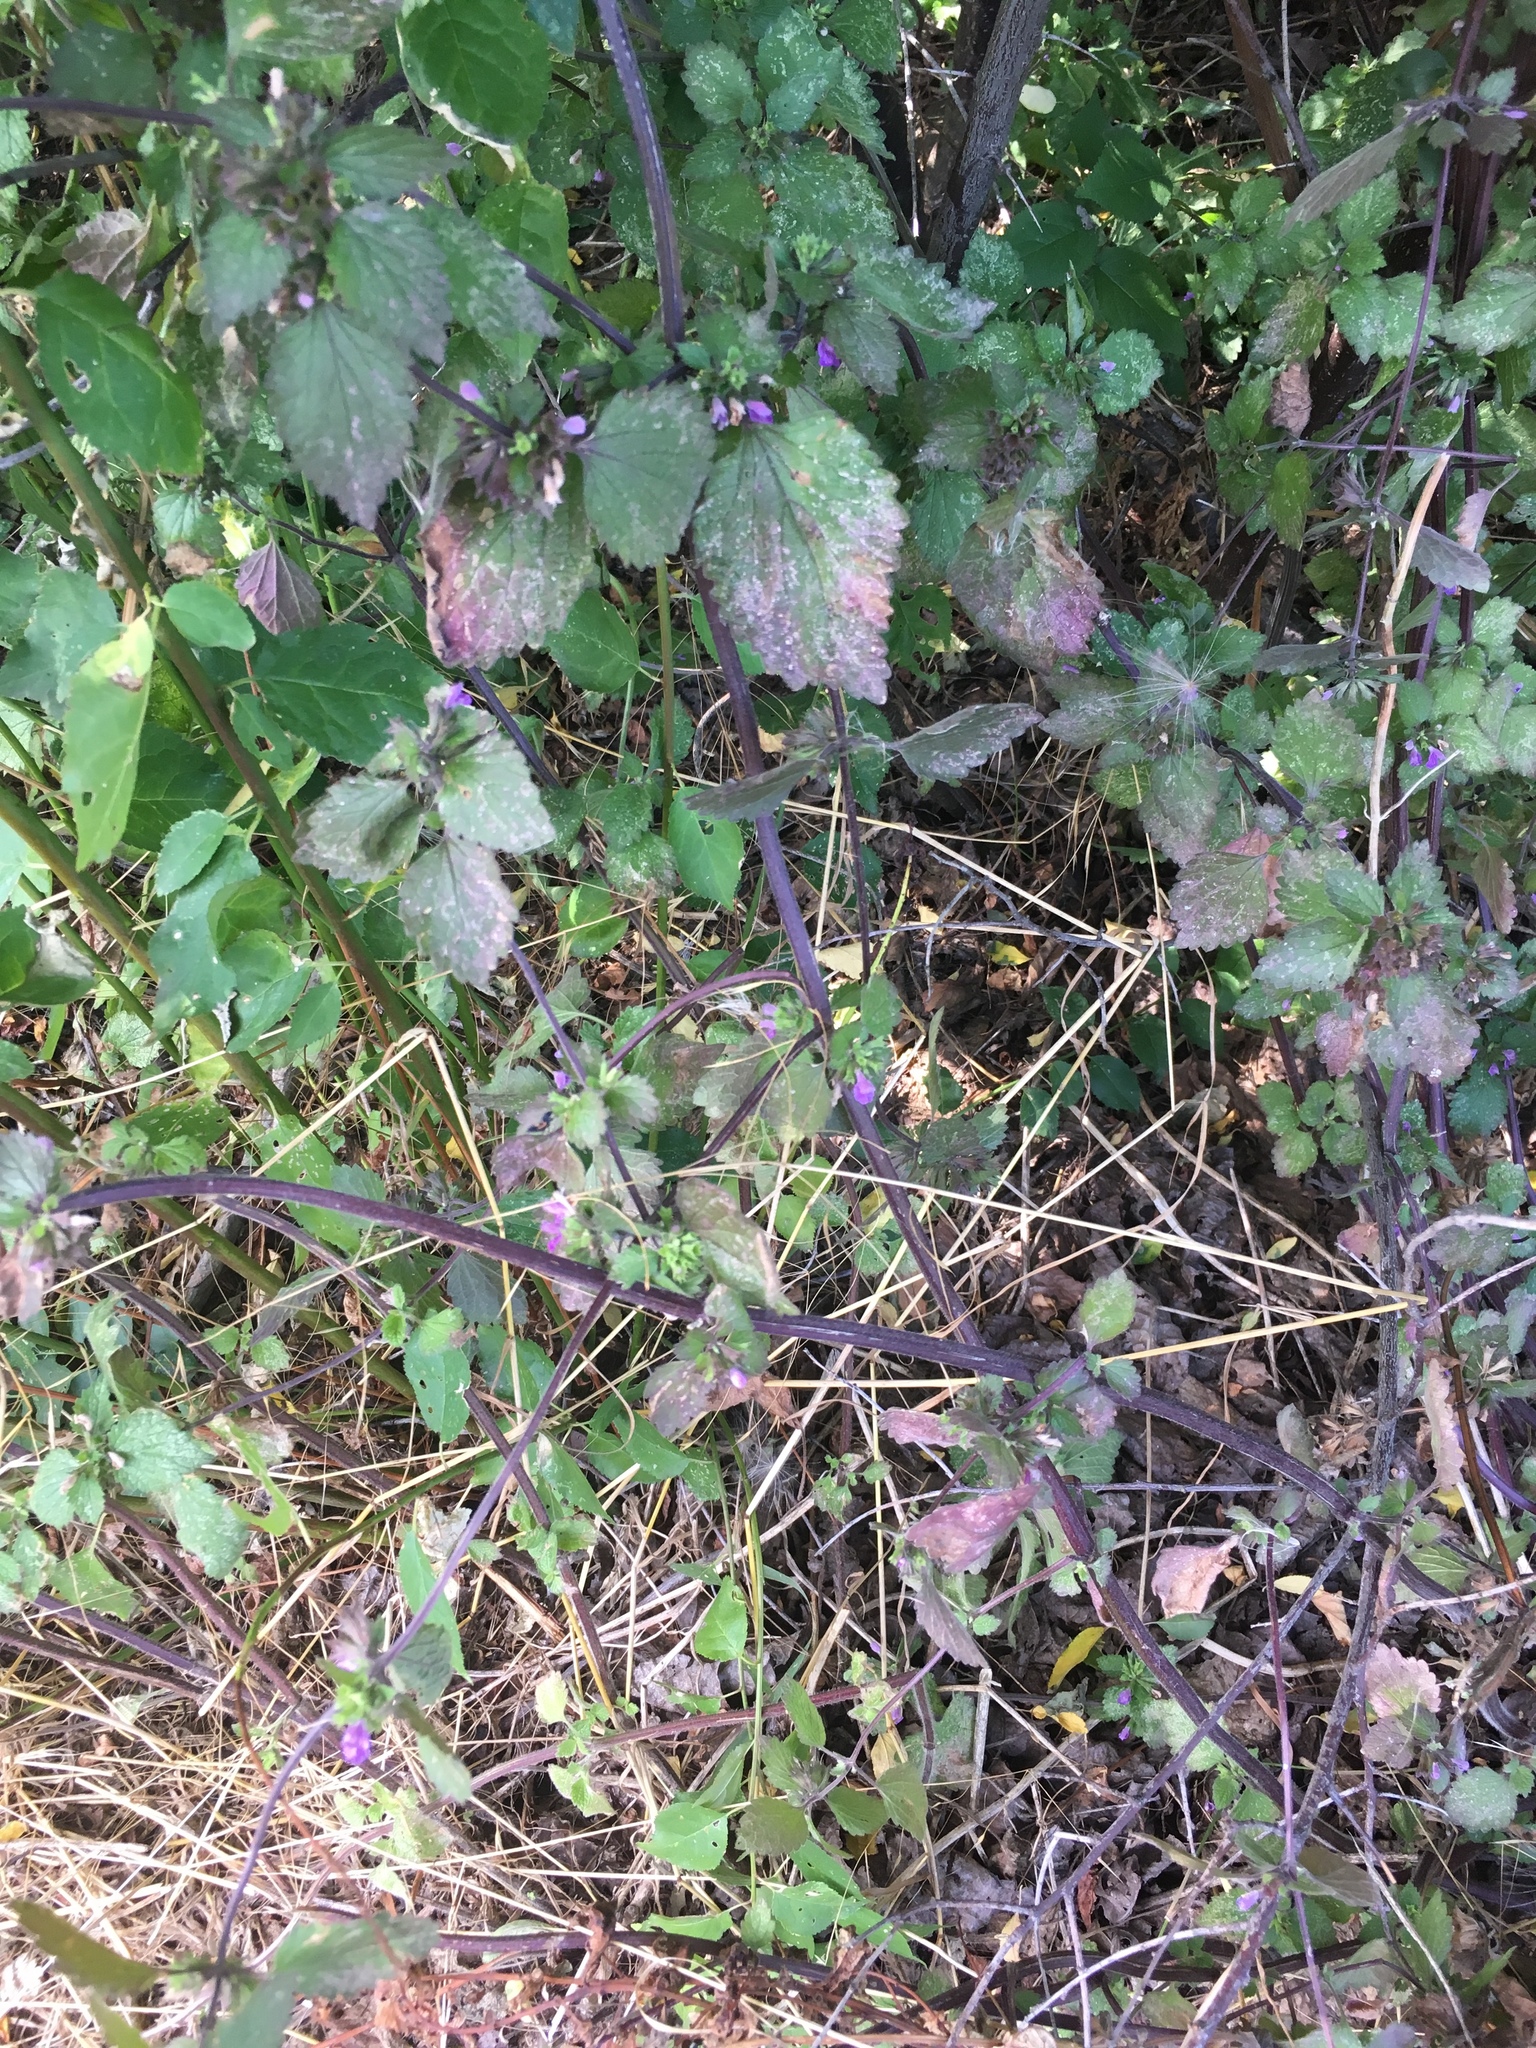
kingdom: Plantae
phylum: Tracheophyta
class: Magnoliopsida
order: Lamiales
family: Lamiaceae
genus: Ballota
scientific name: Ballota nigra
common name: Black horehound
